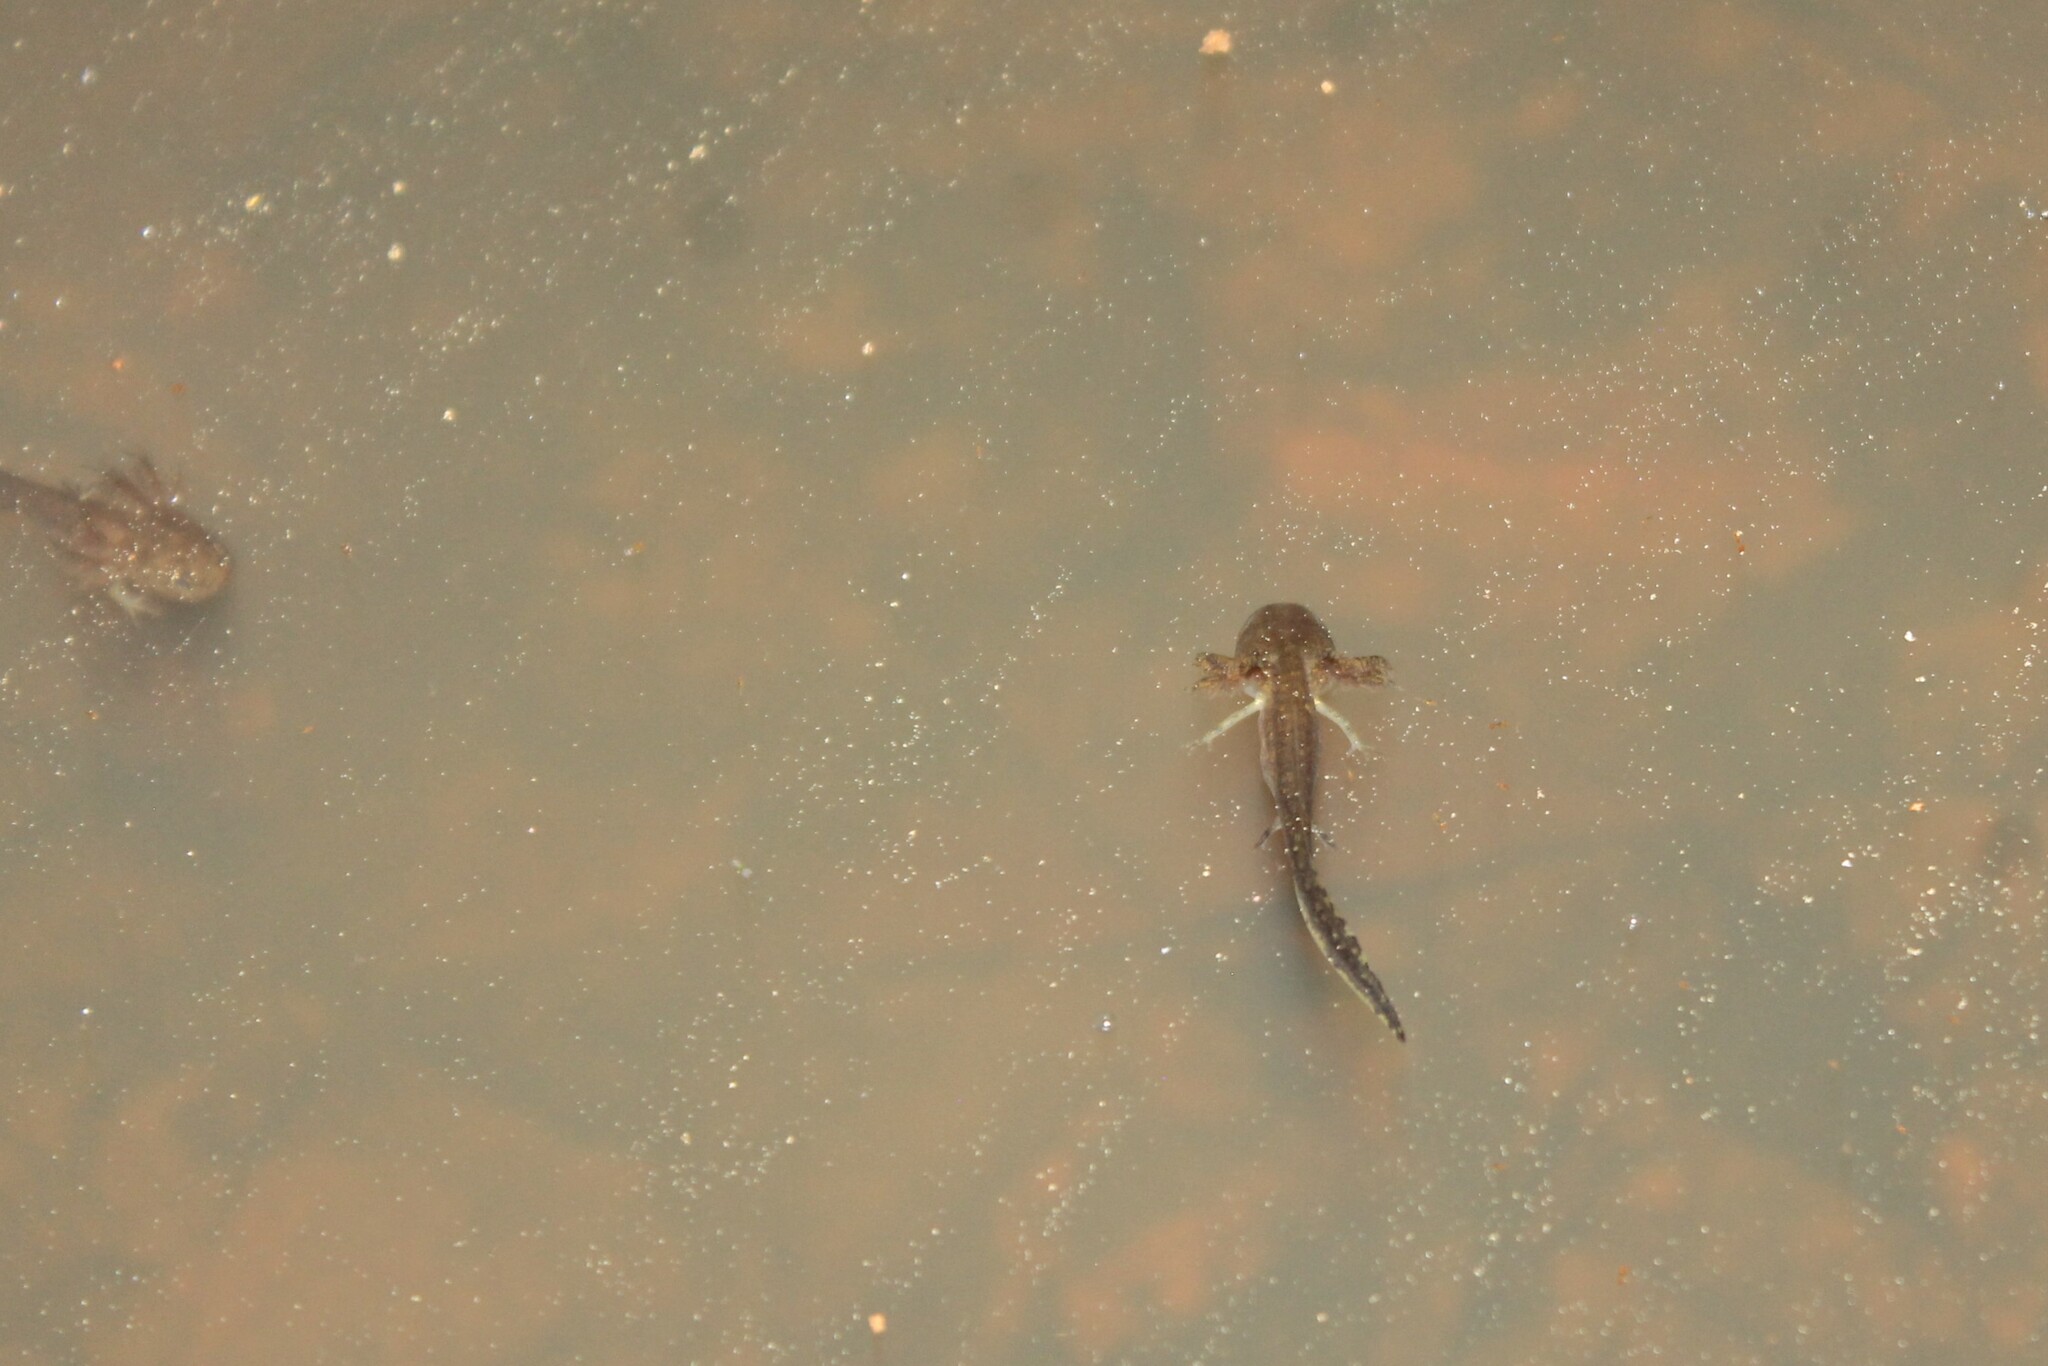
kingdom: Animalia
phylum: Chordata
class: Amphibia
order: Caudata
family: Ambystomatidae
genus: Ambystoma
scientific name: Ambystoma opacum
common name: Marbled salamander
